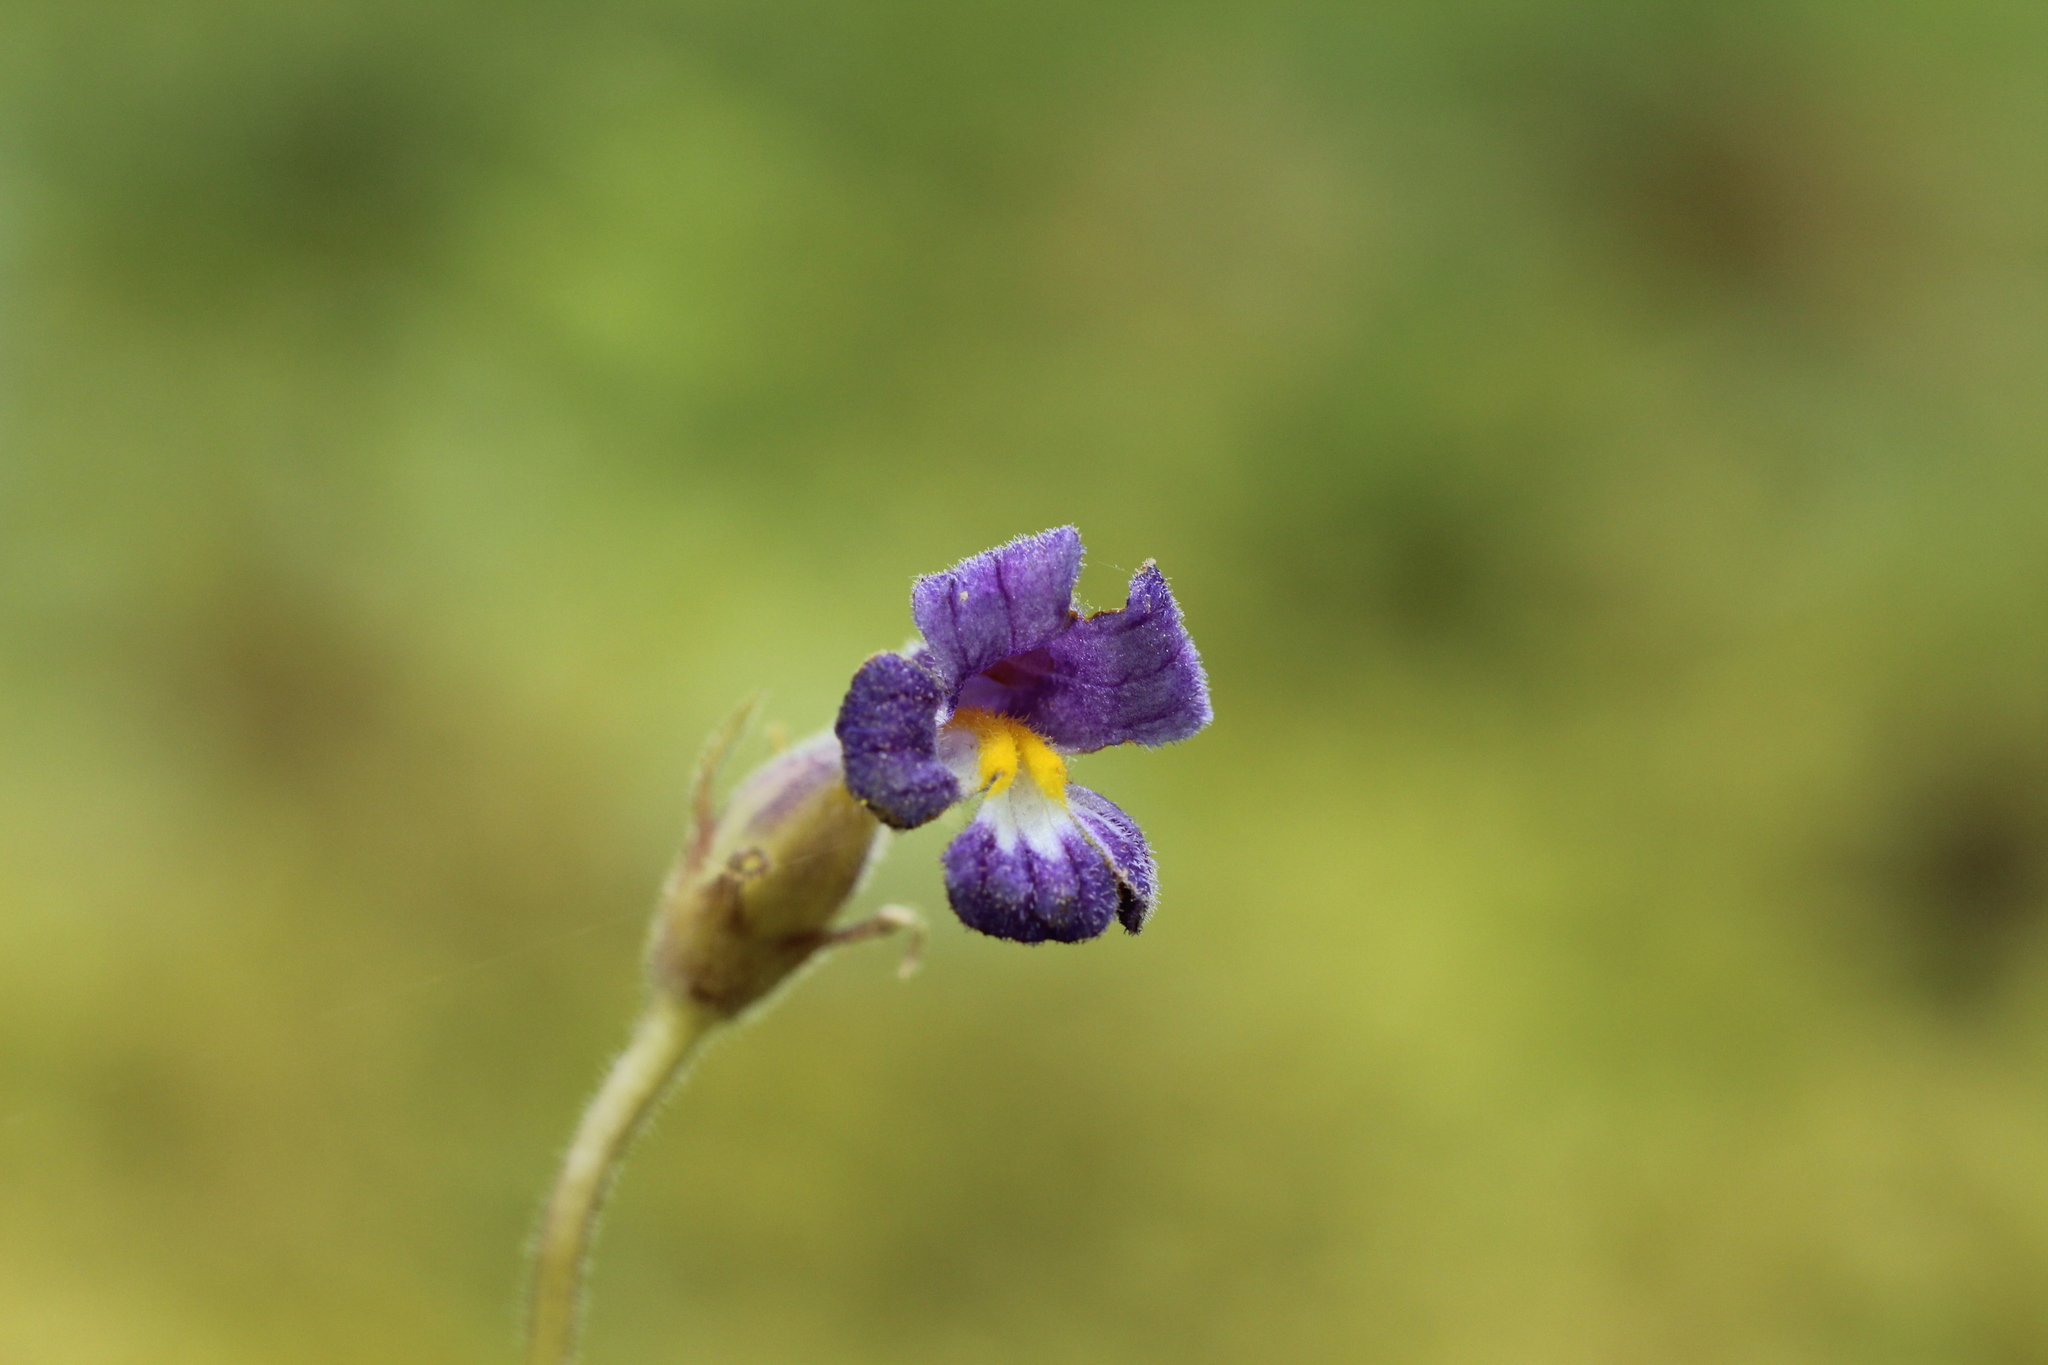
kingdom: Plantae
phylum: Tracheophyta
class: Magnoliopsida
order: Lamiales
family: Orobanchaceae
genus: Aphyllon
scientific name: Aphyllon uniflorum
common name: One-flowered broomrape
